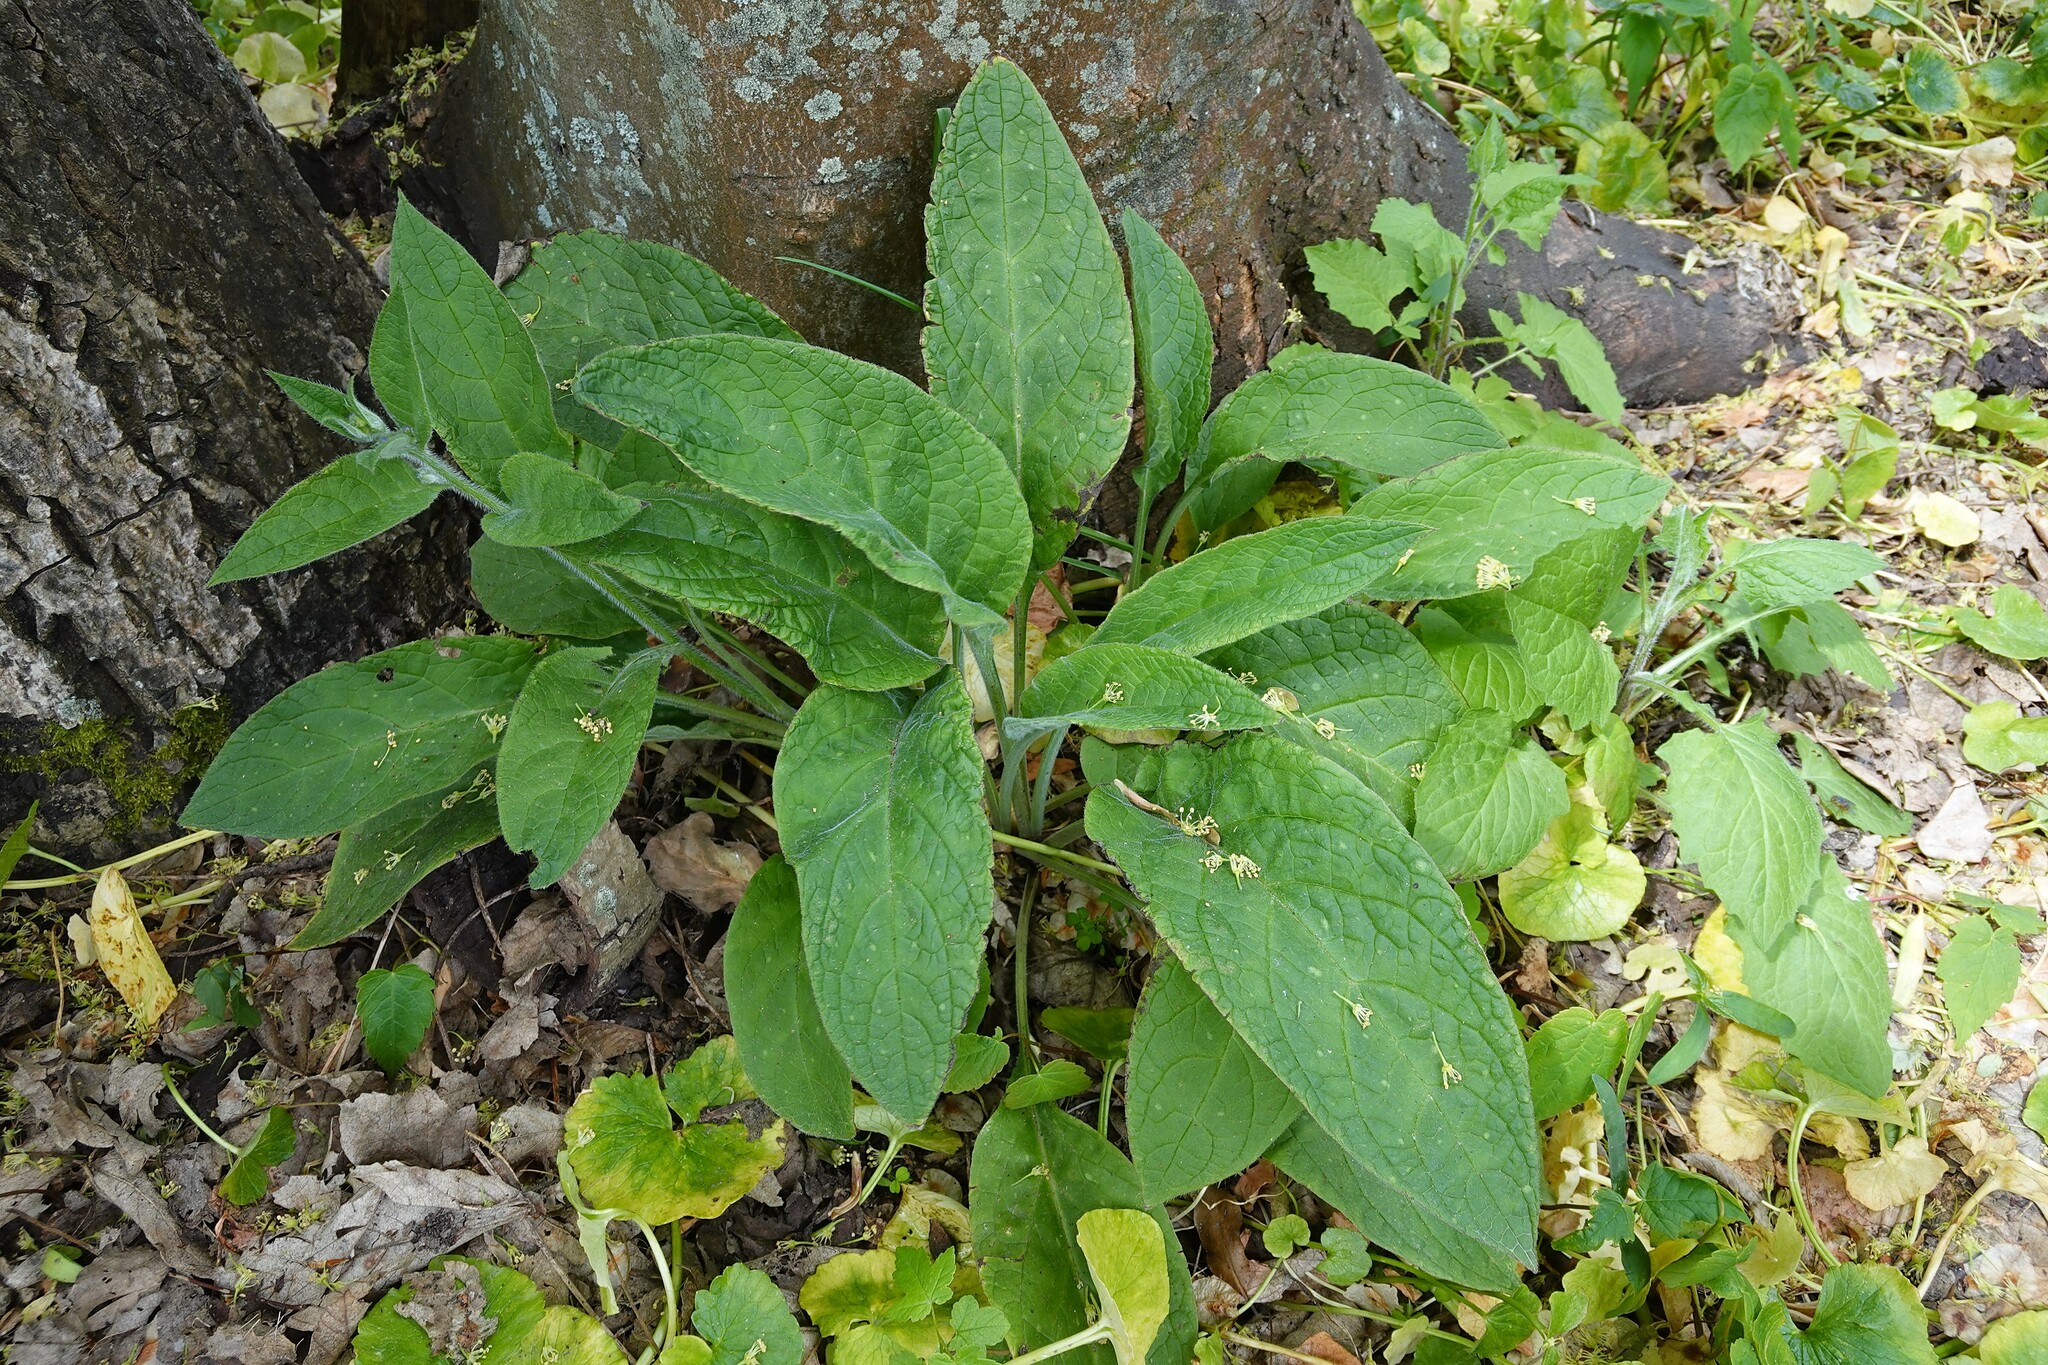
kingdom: Plantae
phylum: Tracheophyta
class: Magnoliopsida
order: Boraginales
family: Boraginaceae
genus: Pentaglottis
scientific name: Pentaglottis sempervirens
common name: Green alkanet
